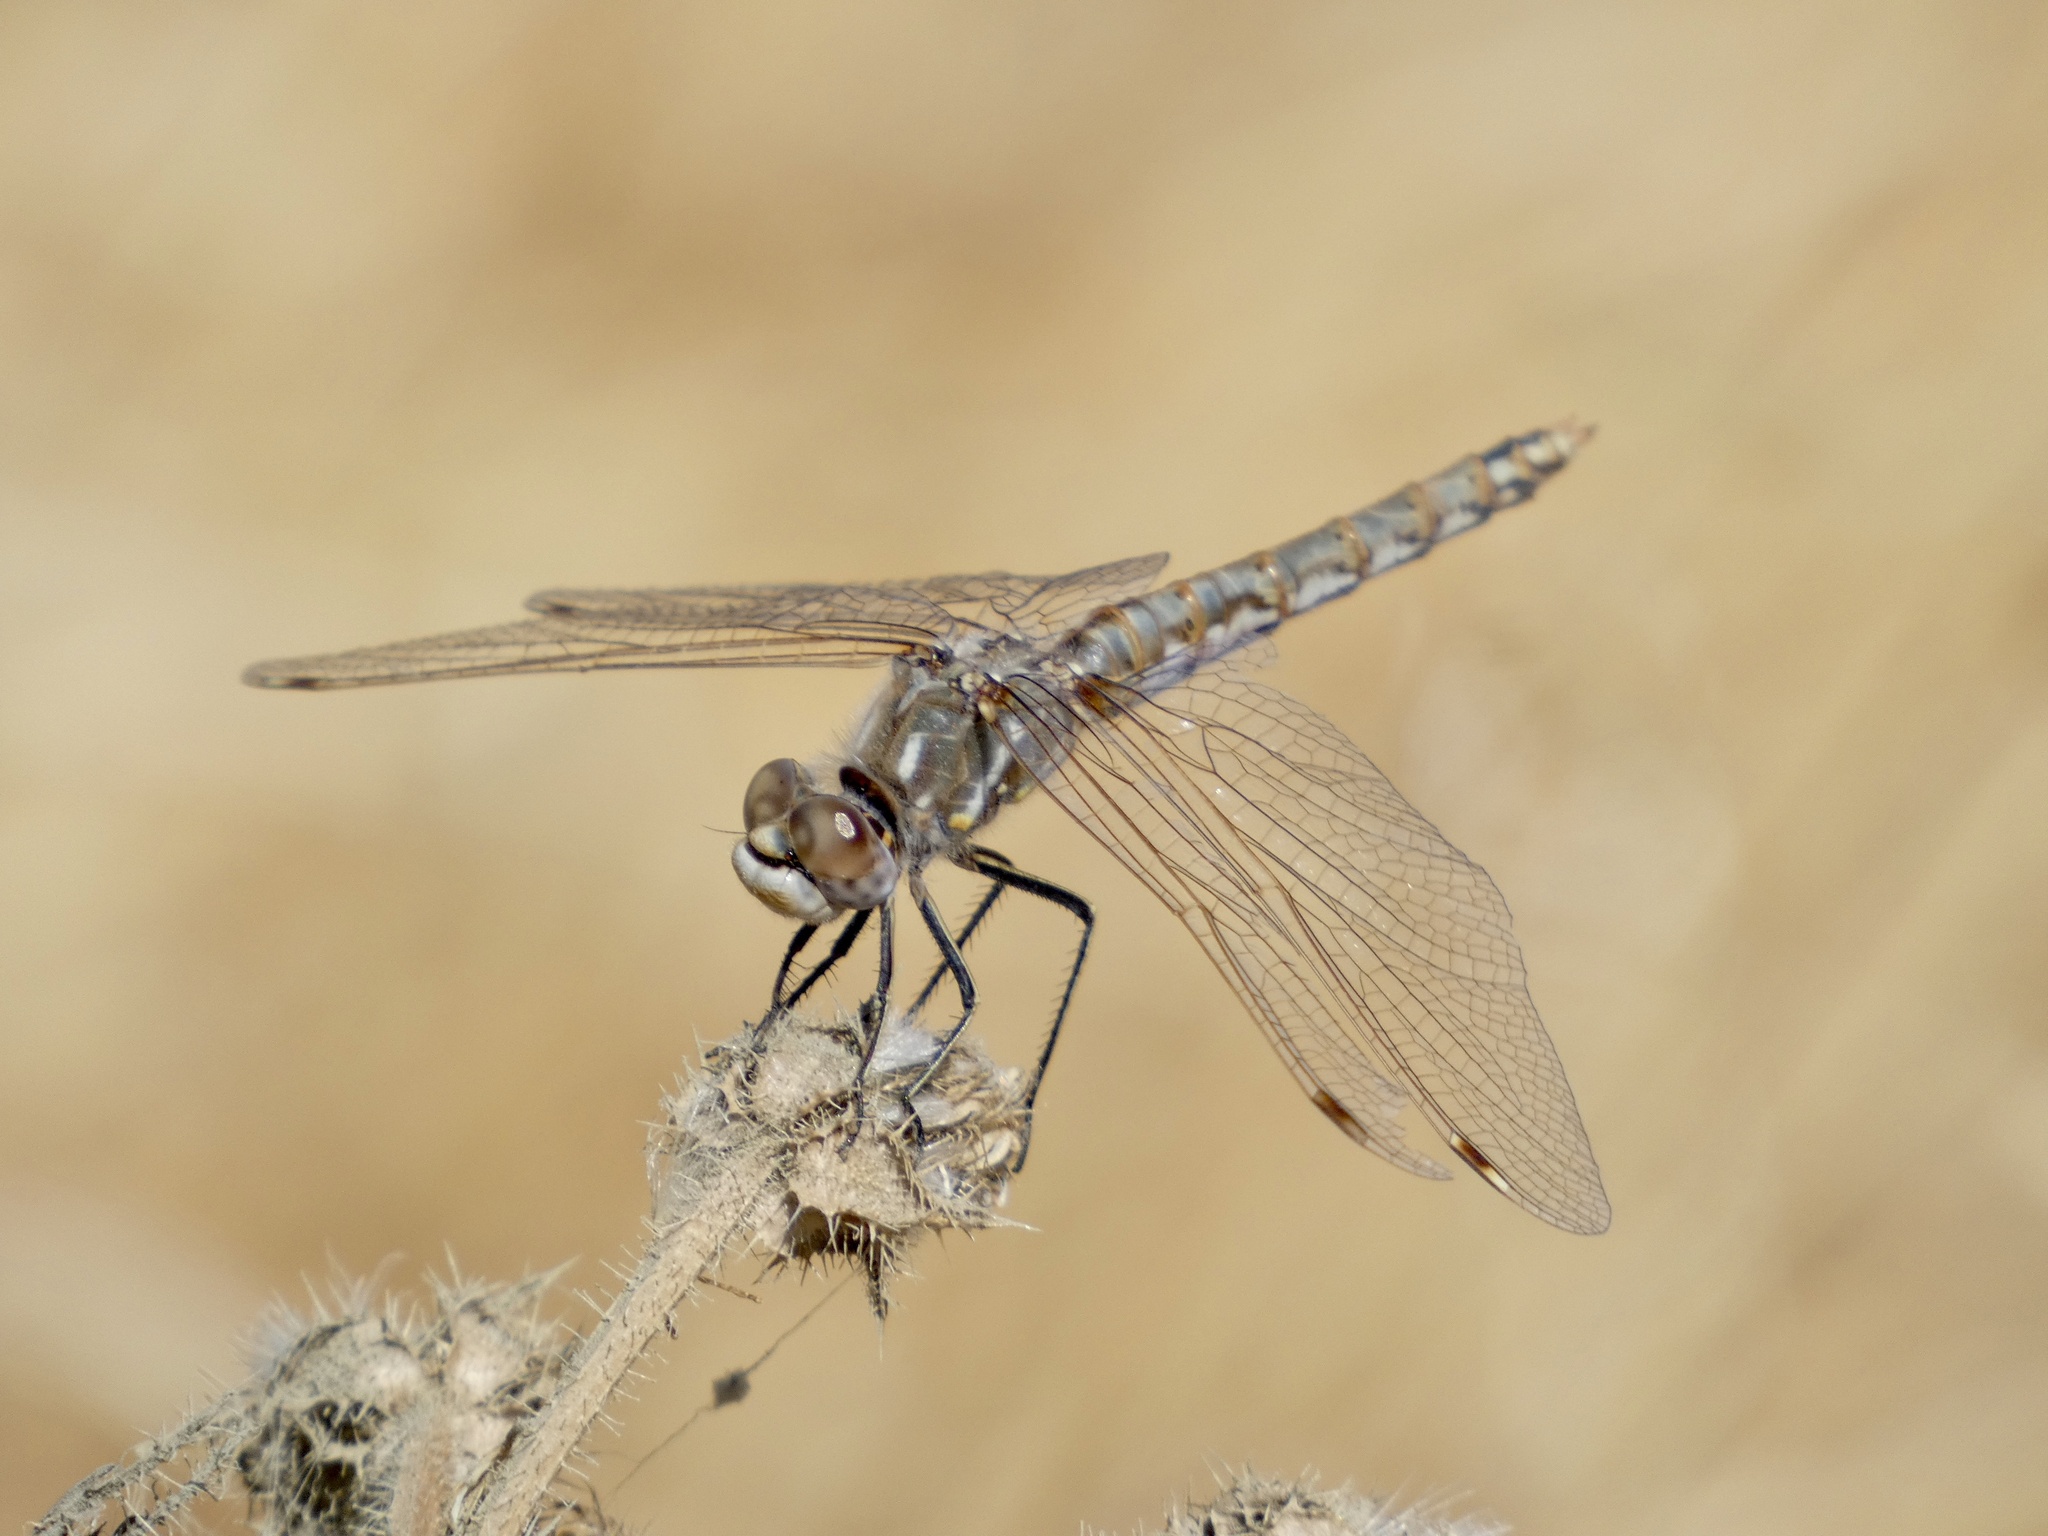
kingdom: Animalia
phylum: Arthropoda
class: Insecta
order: Odonata
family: Libellulidae
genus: Sympetrum
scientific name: Sympetrum corruptum
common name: Variegated meadowhawk
